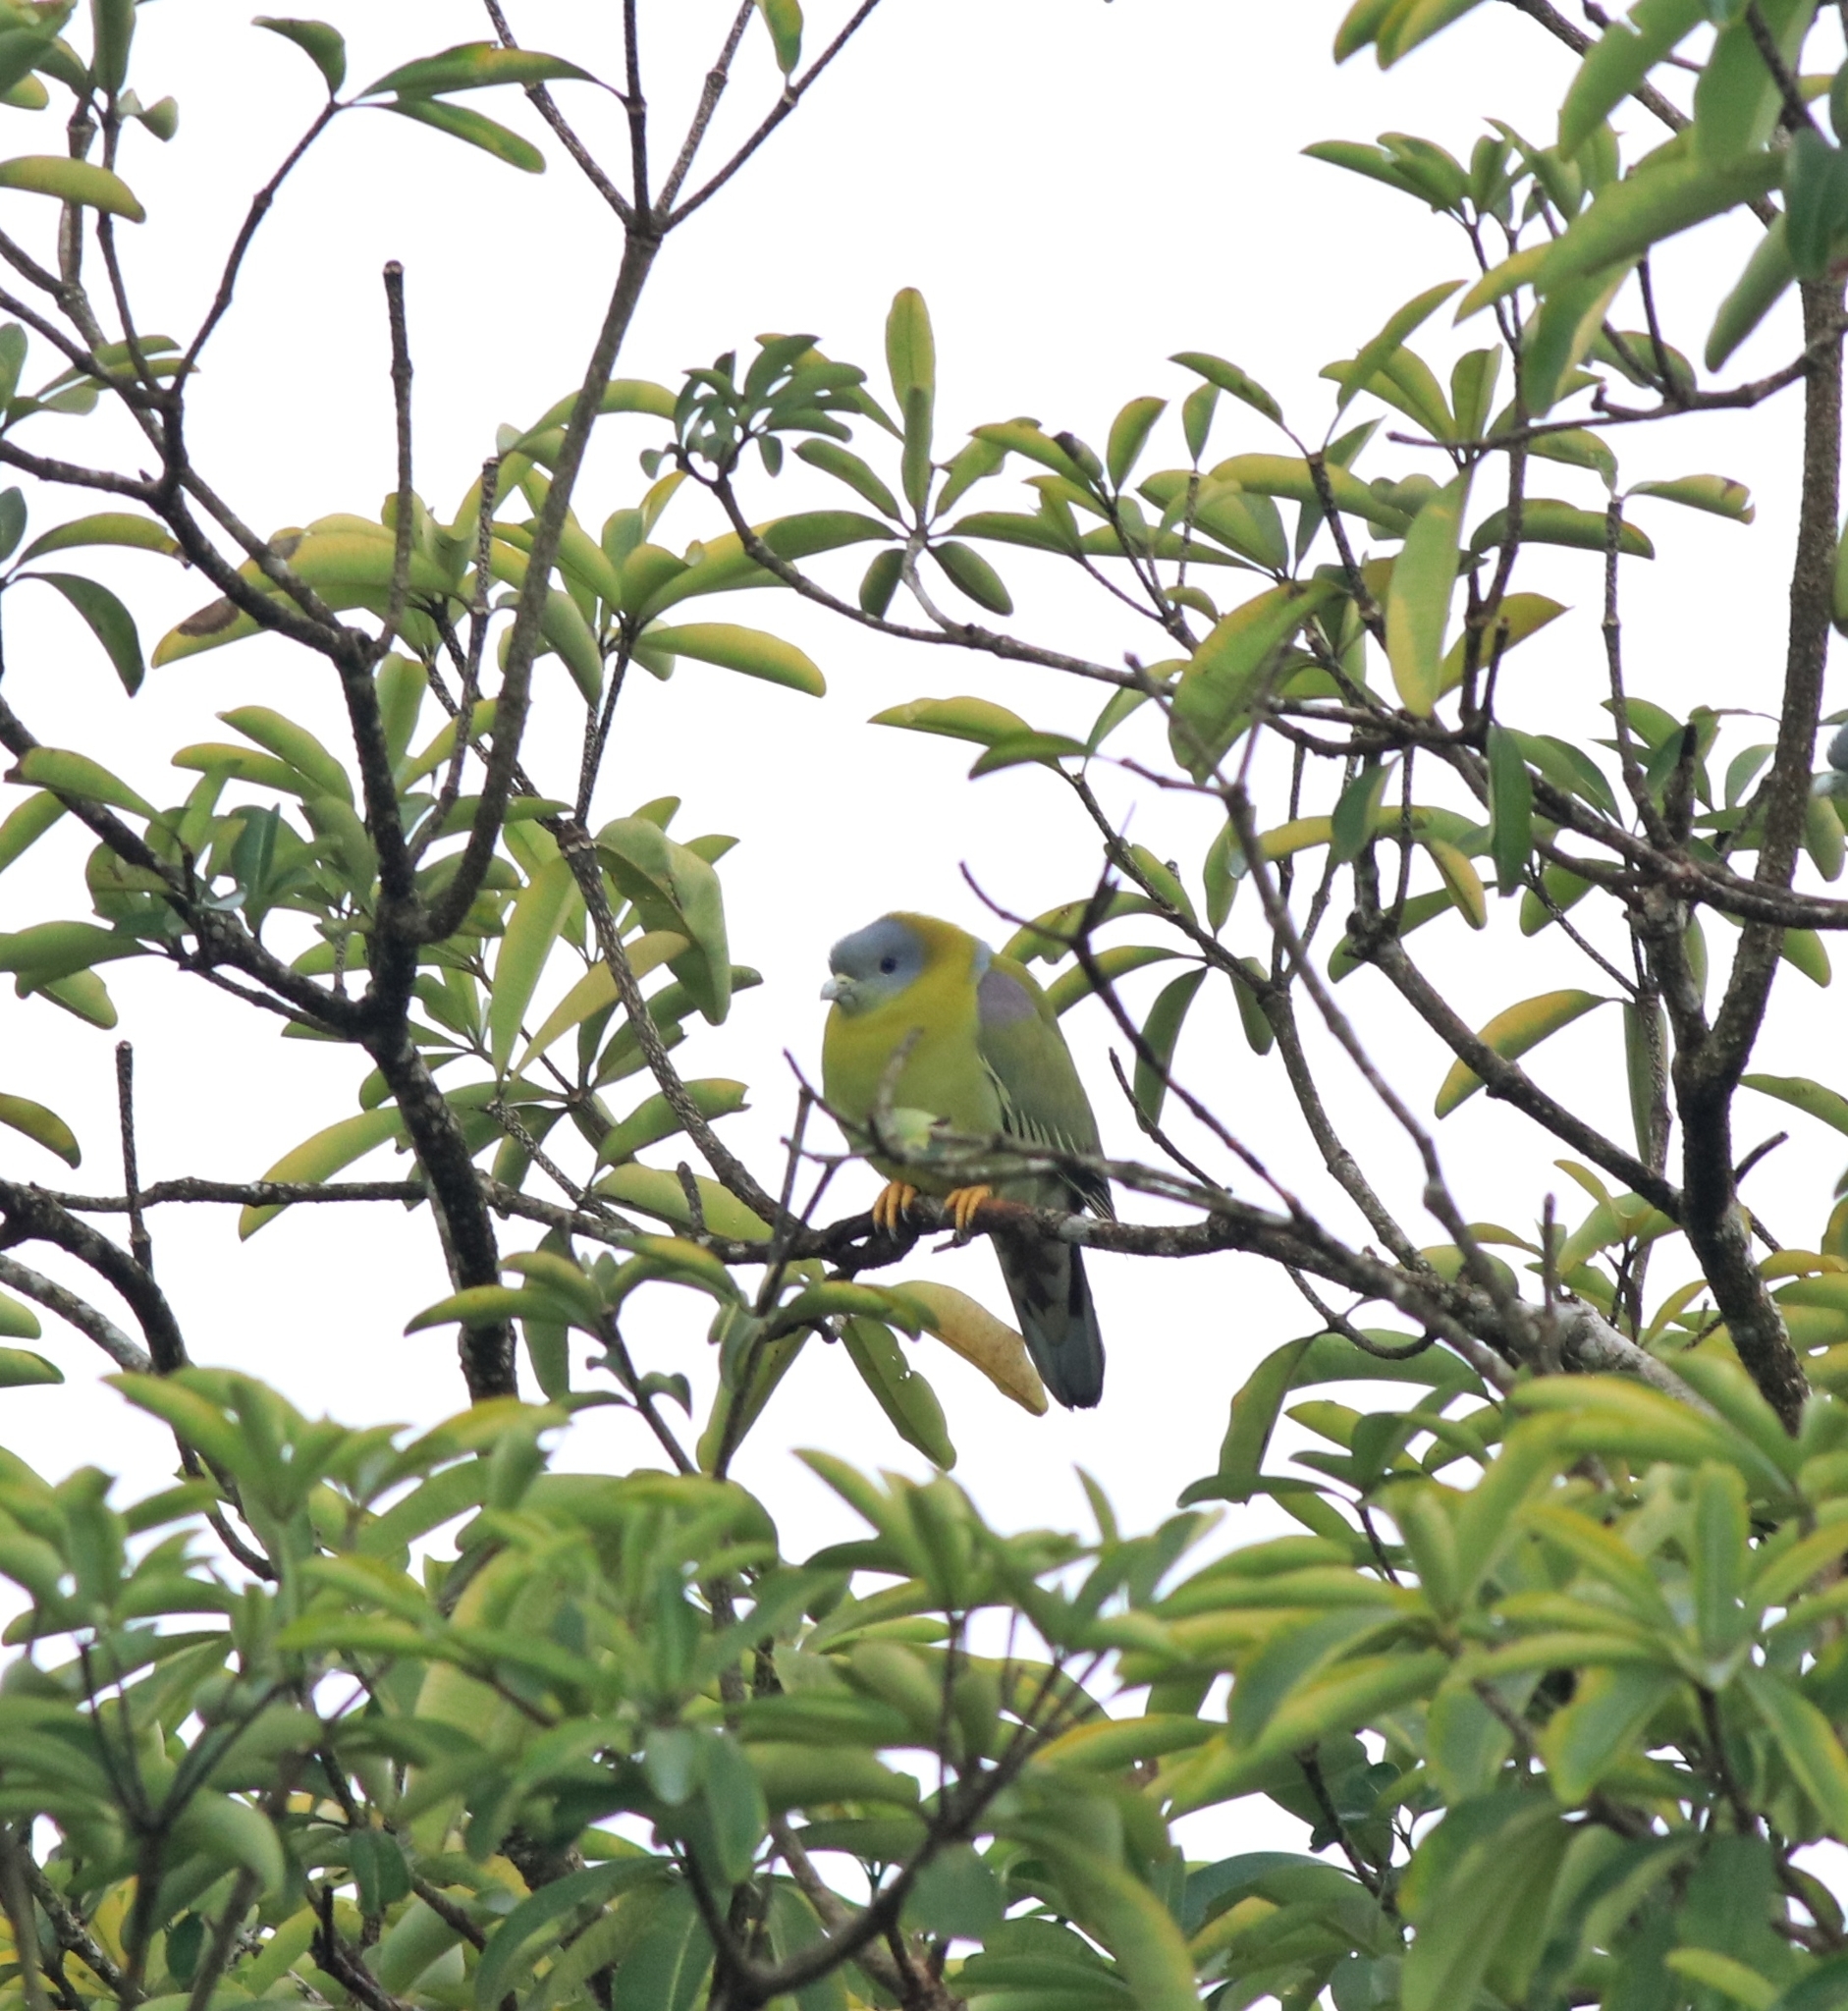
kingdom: Animalia
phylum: Chordata
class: Aves
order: Columbiformes
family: Columbidae
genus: Treron
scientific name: Treron phoenicopterus
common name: Yellow-footed green pigeon
